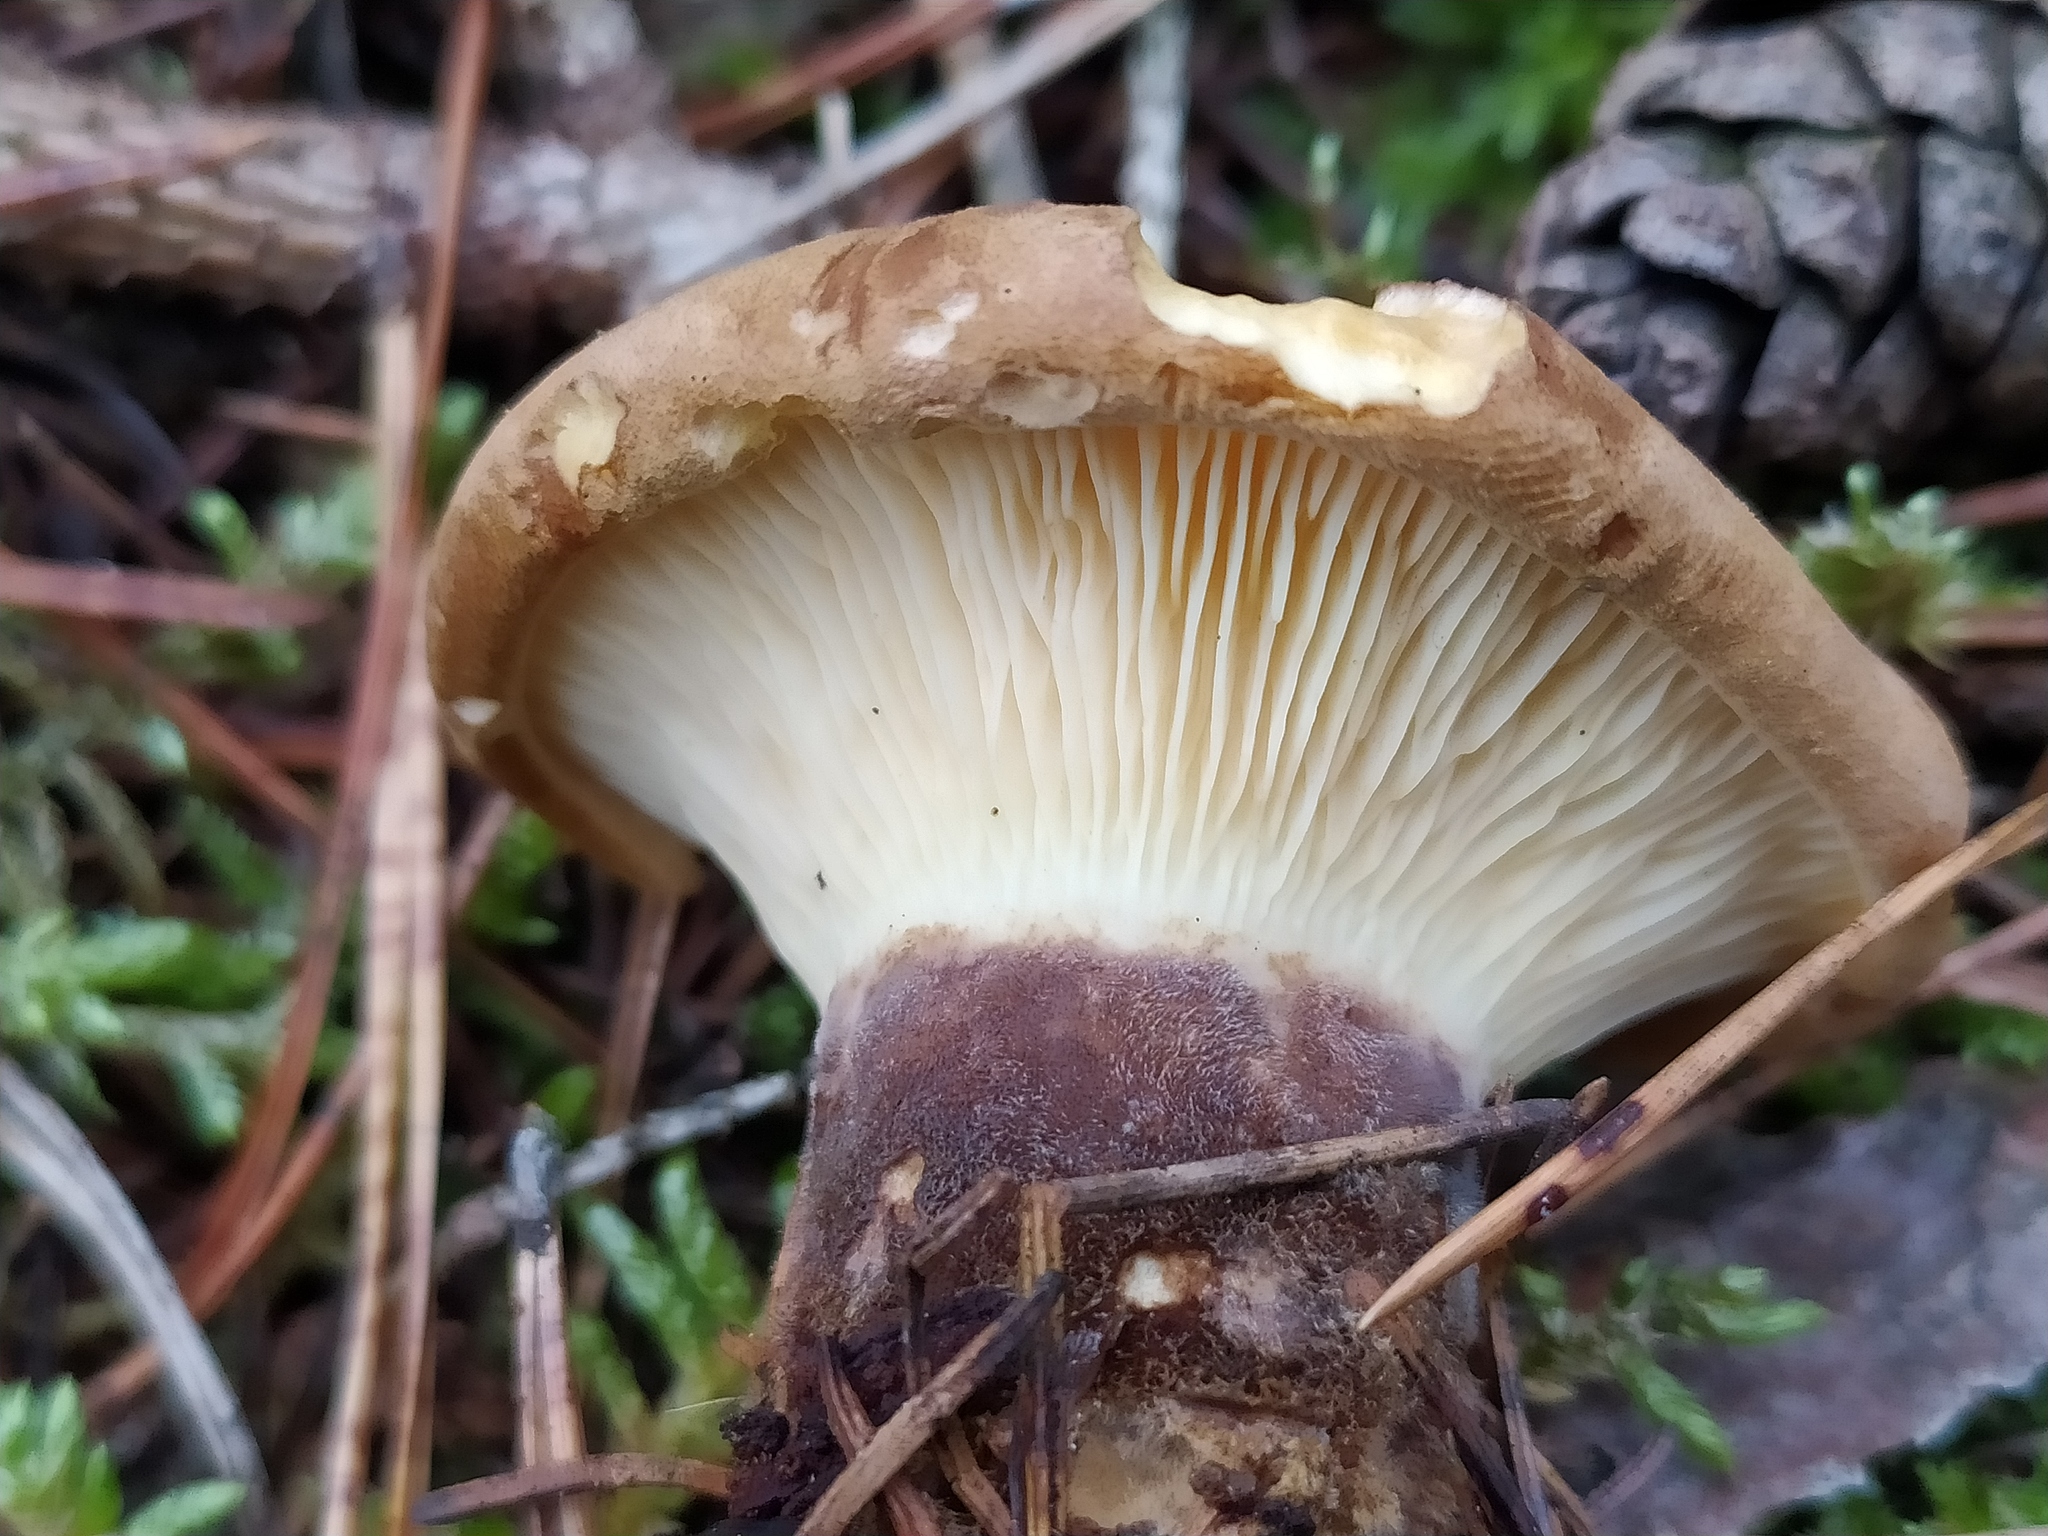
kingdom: Fungi
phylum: Basidiomycota
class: Agaricomycetes
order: Boletales
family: Tapinellaceae
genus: Tapinella
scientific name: Tapinella atrotomentosa
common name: Velvet rollrim
